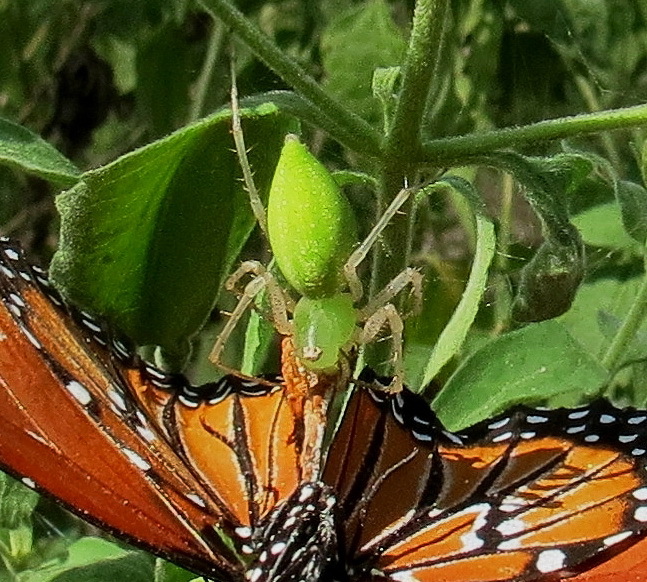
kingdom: Animalia
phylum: Arthropoda
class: Arachnida
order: Araneae
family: Oxyopidae
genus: Peucetia
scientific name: Peucetia longipalpis
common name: Lynx spiders
